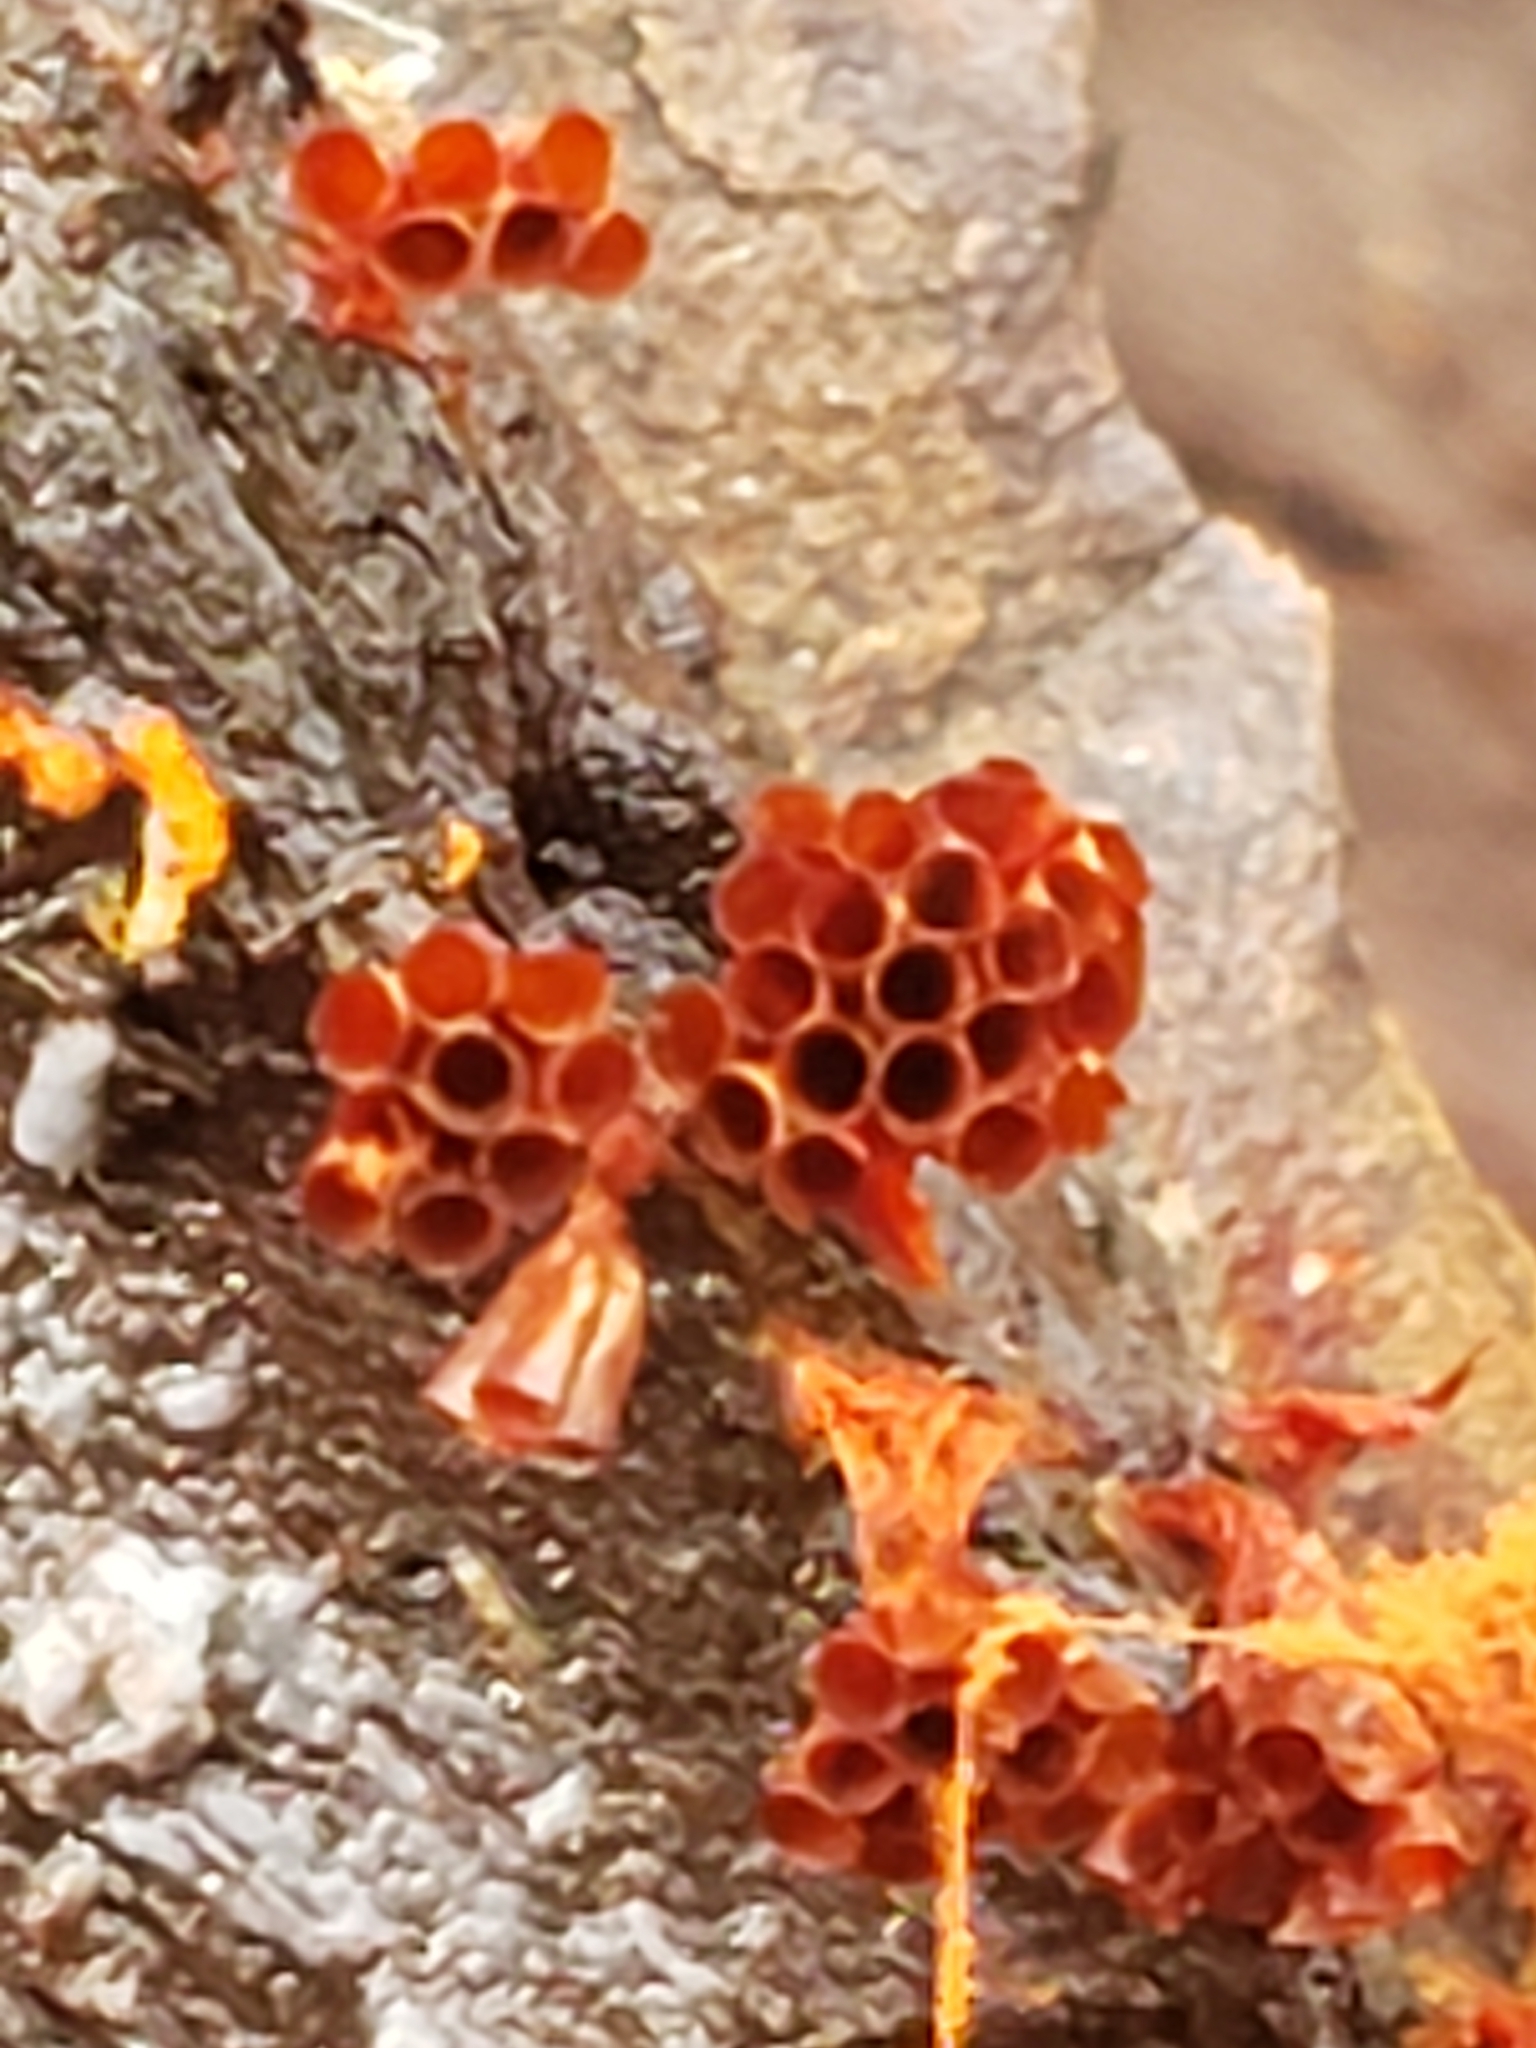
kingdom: Protozoa
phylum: Mycetozoa
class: Myxomycetes
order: Trichiales
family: Trichiaceae
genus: Metatrichia
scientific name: Metatrichia vesparia
